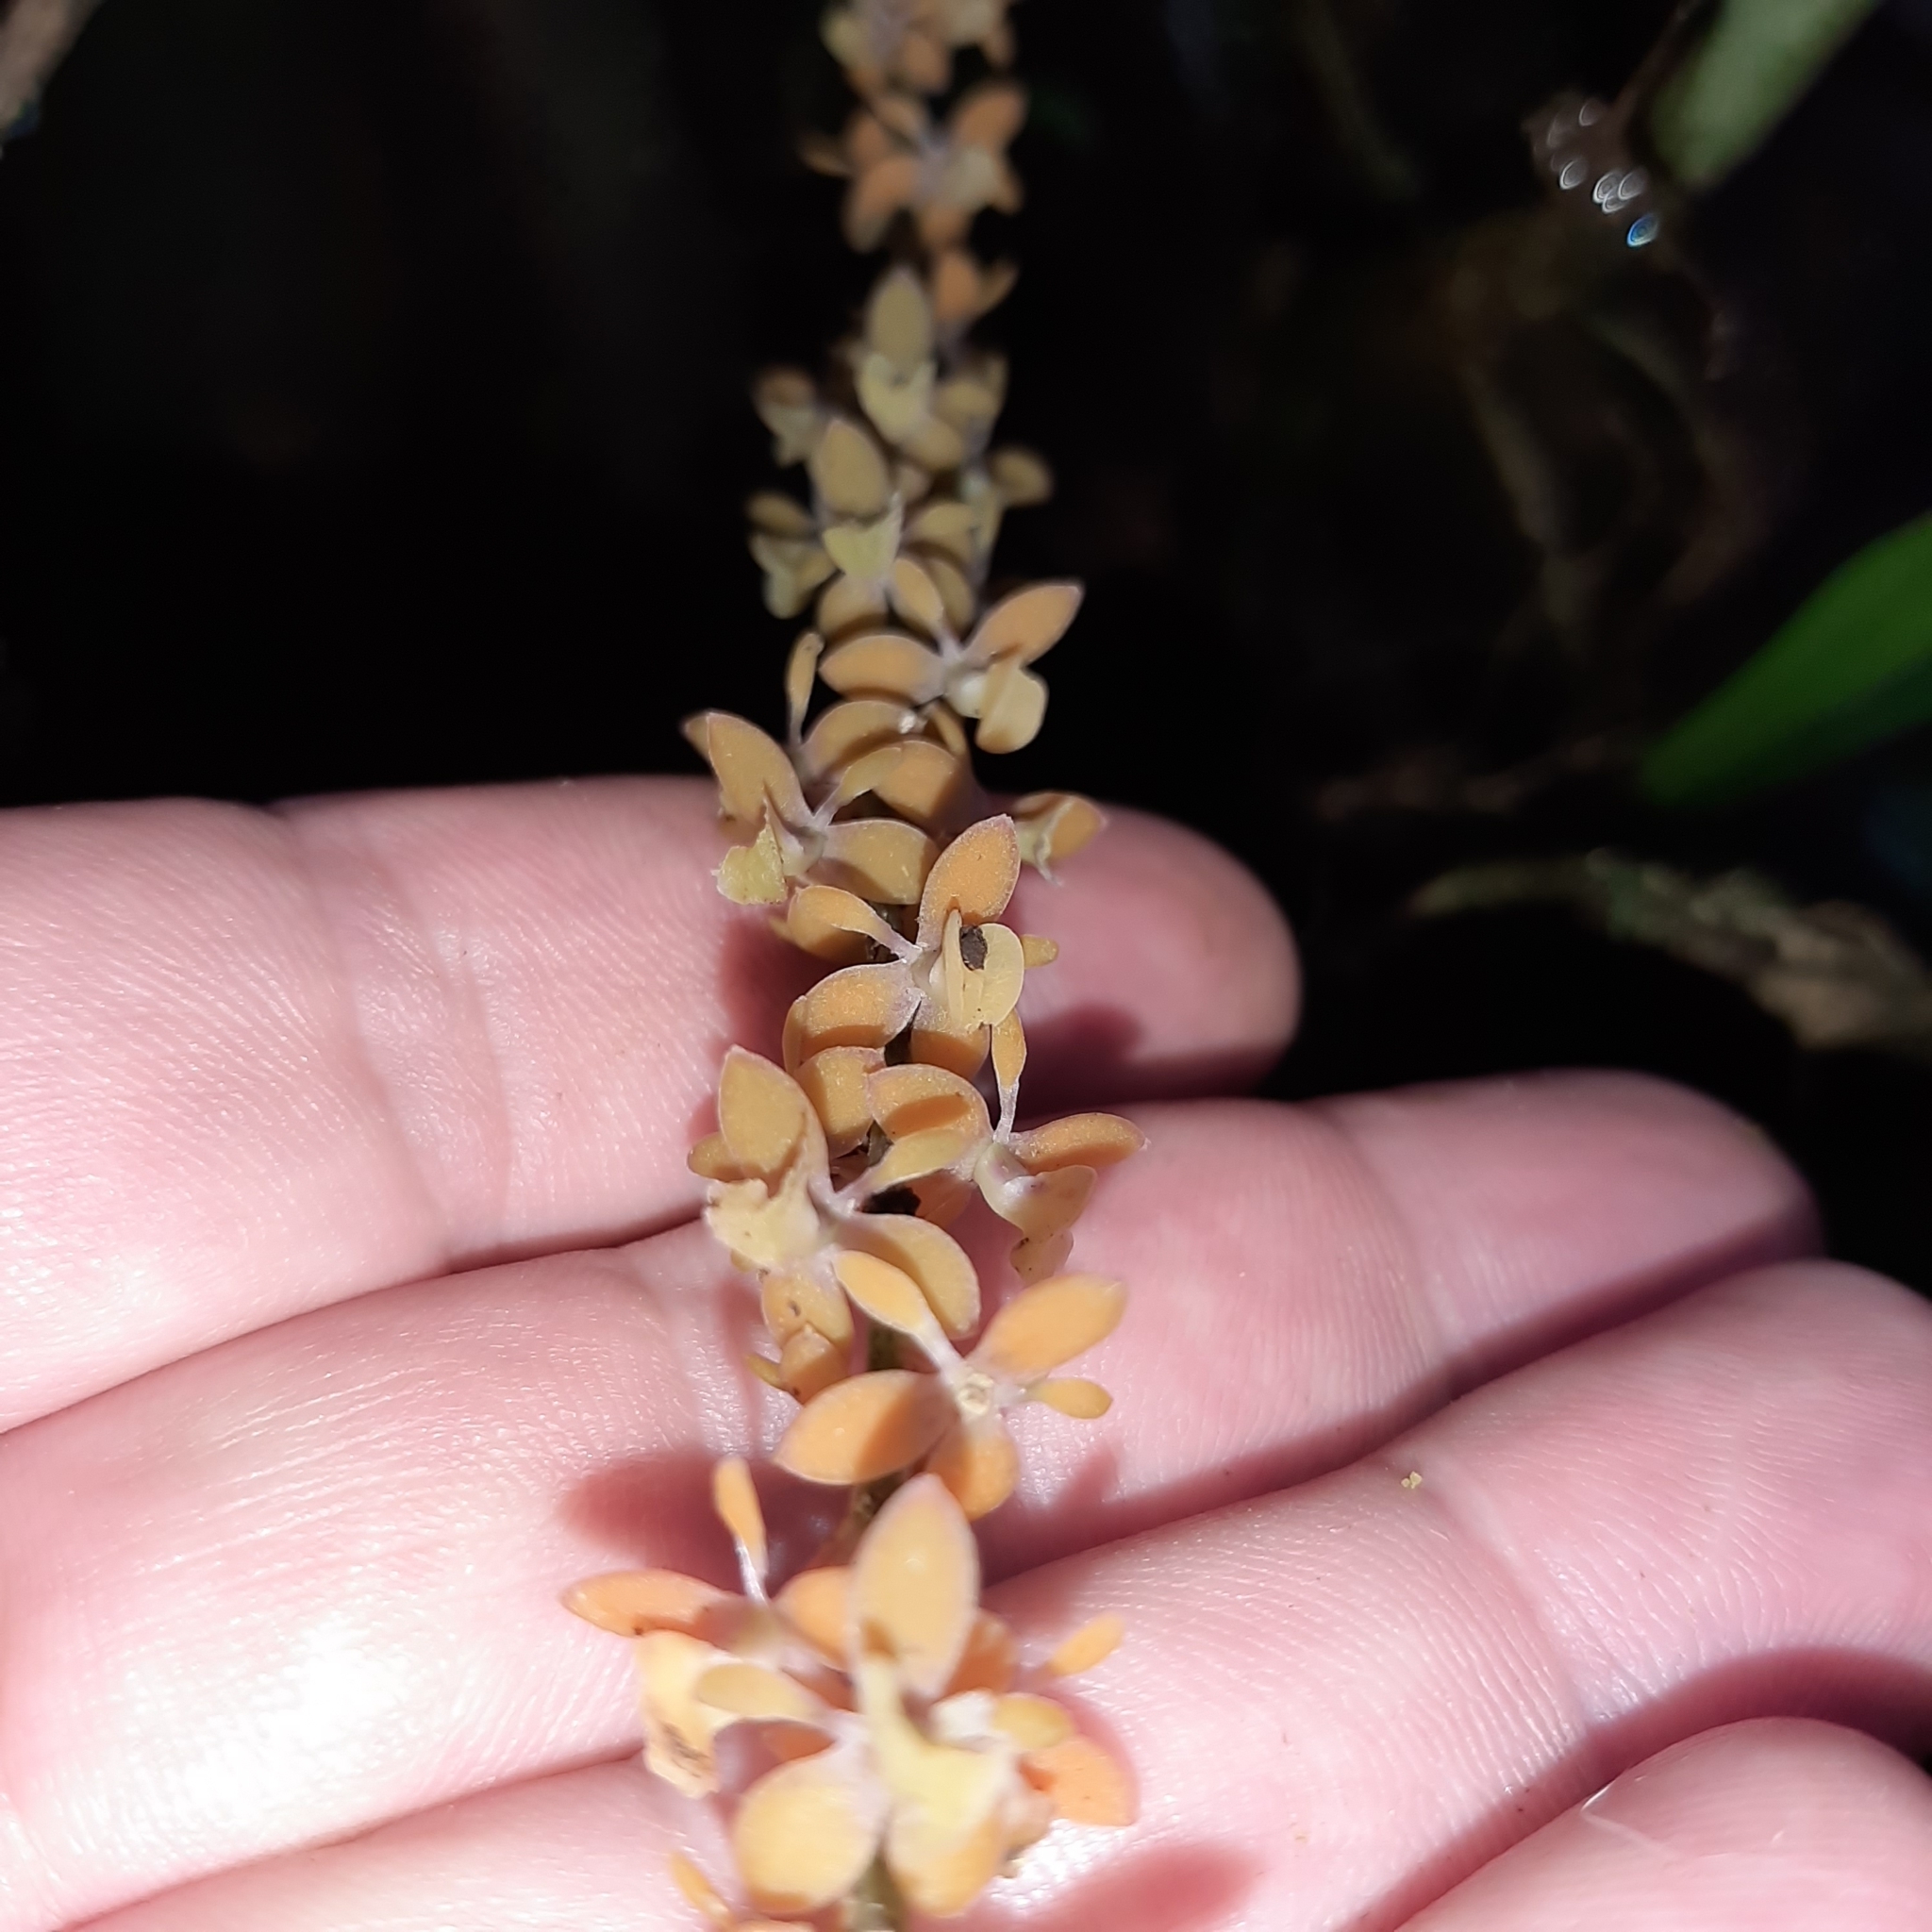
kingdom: Plantae
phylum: Tracheophyta
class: Liliopsida
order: Asparagales
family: Orchidaceae
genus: Epidendrum
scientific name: Epidendrum laucheanum
